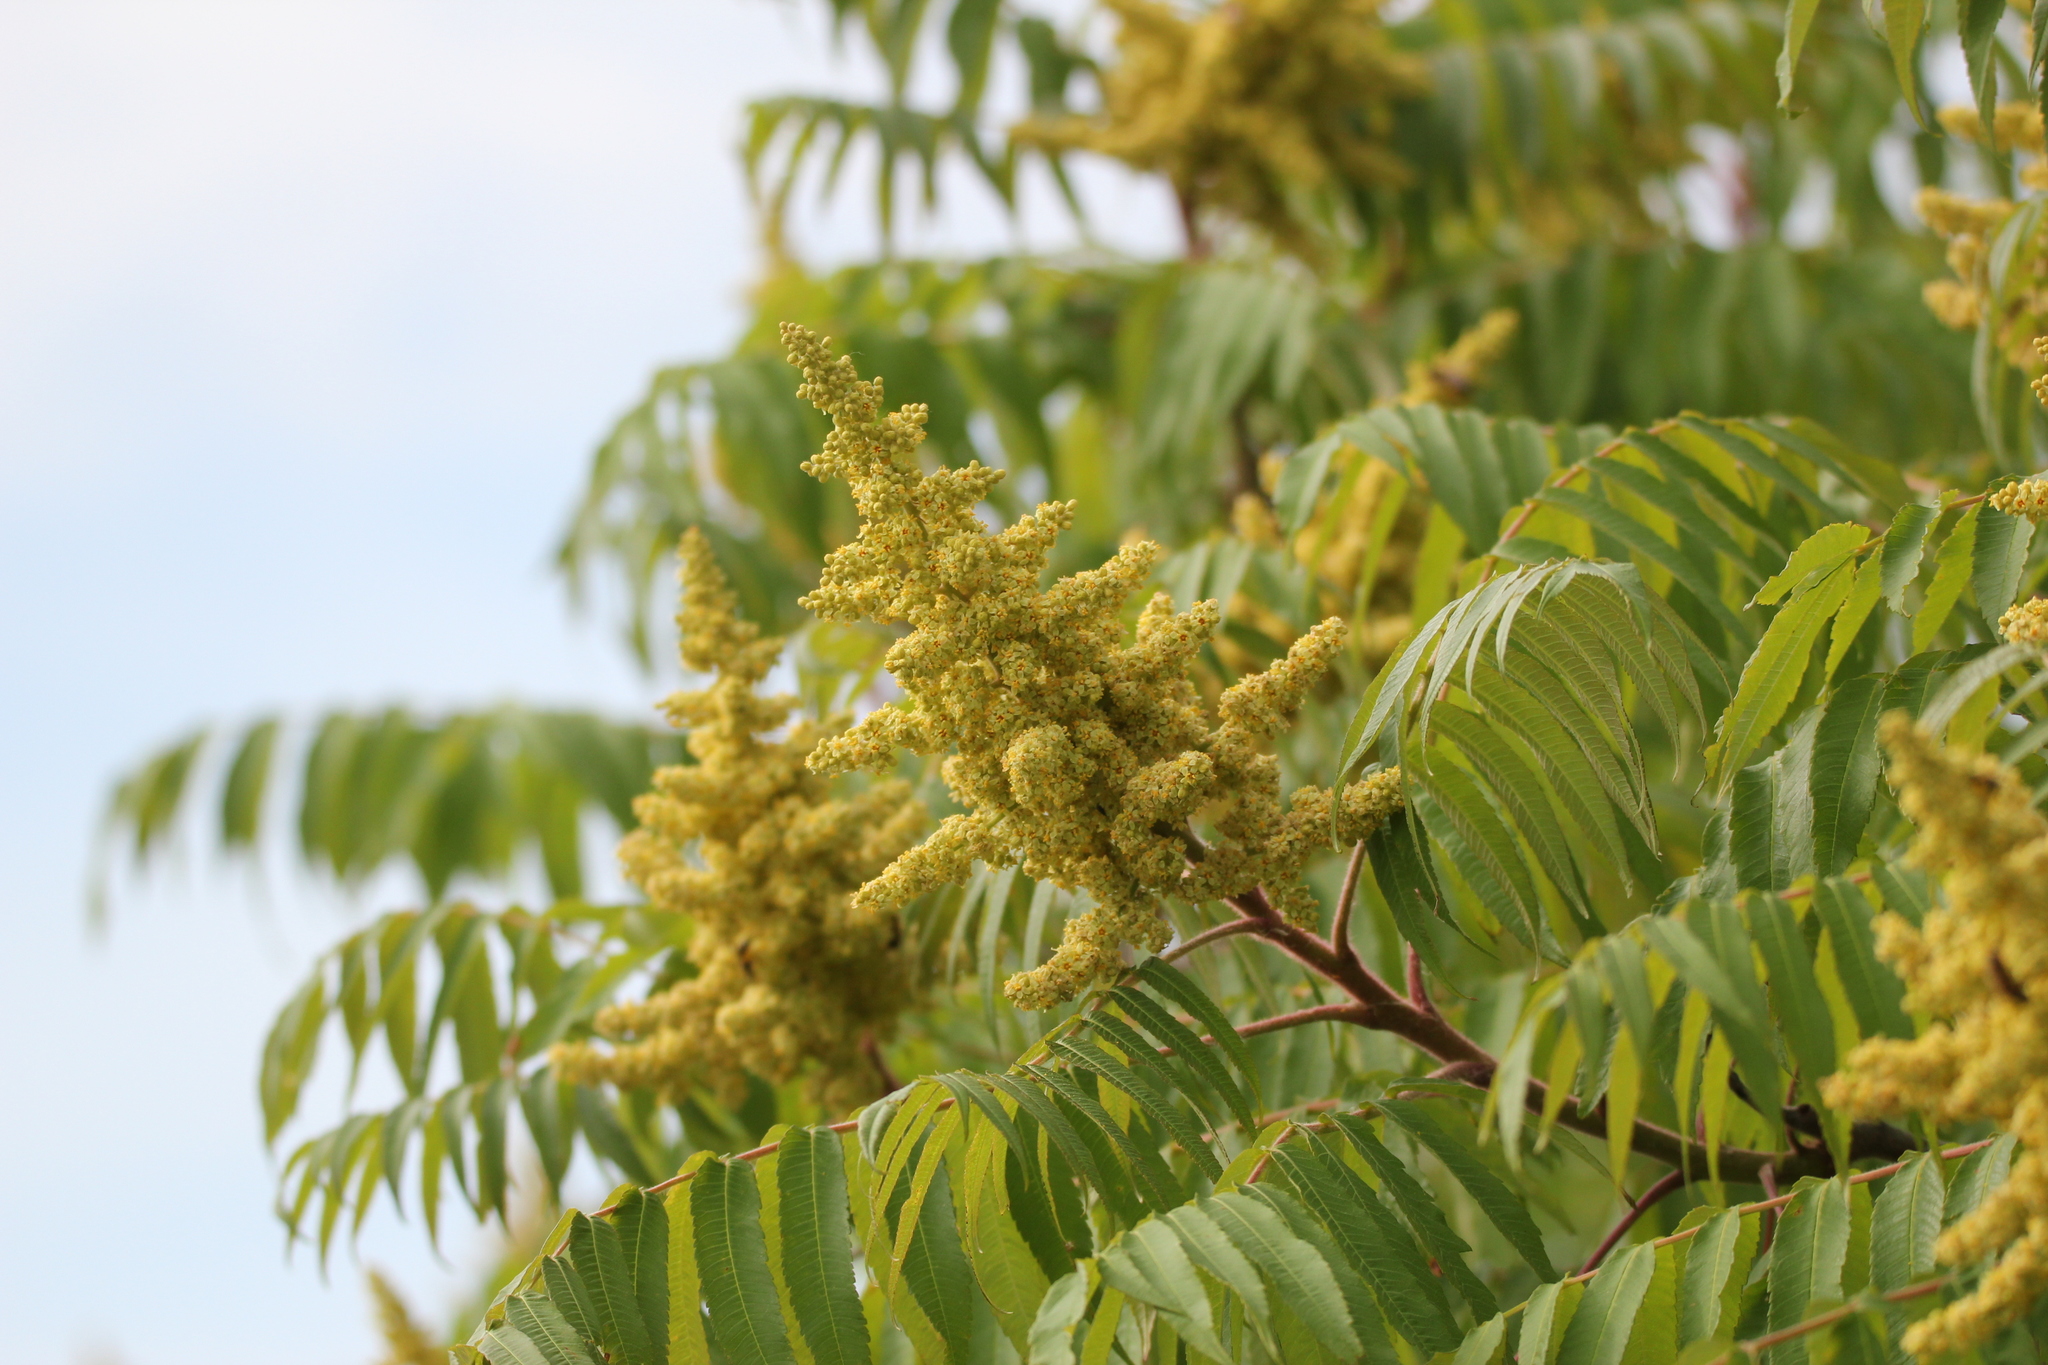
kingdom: Plantae
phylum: Tracheophyta
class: Magnoliopsida
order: Sapindales
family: Anacardiaceae
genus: Rhus
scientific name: Rhus typhina
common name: Staghorn sumac
